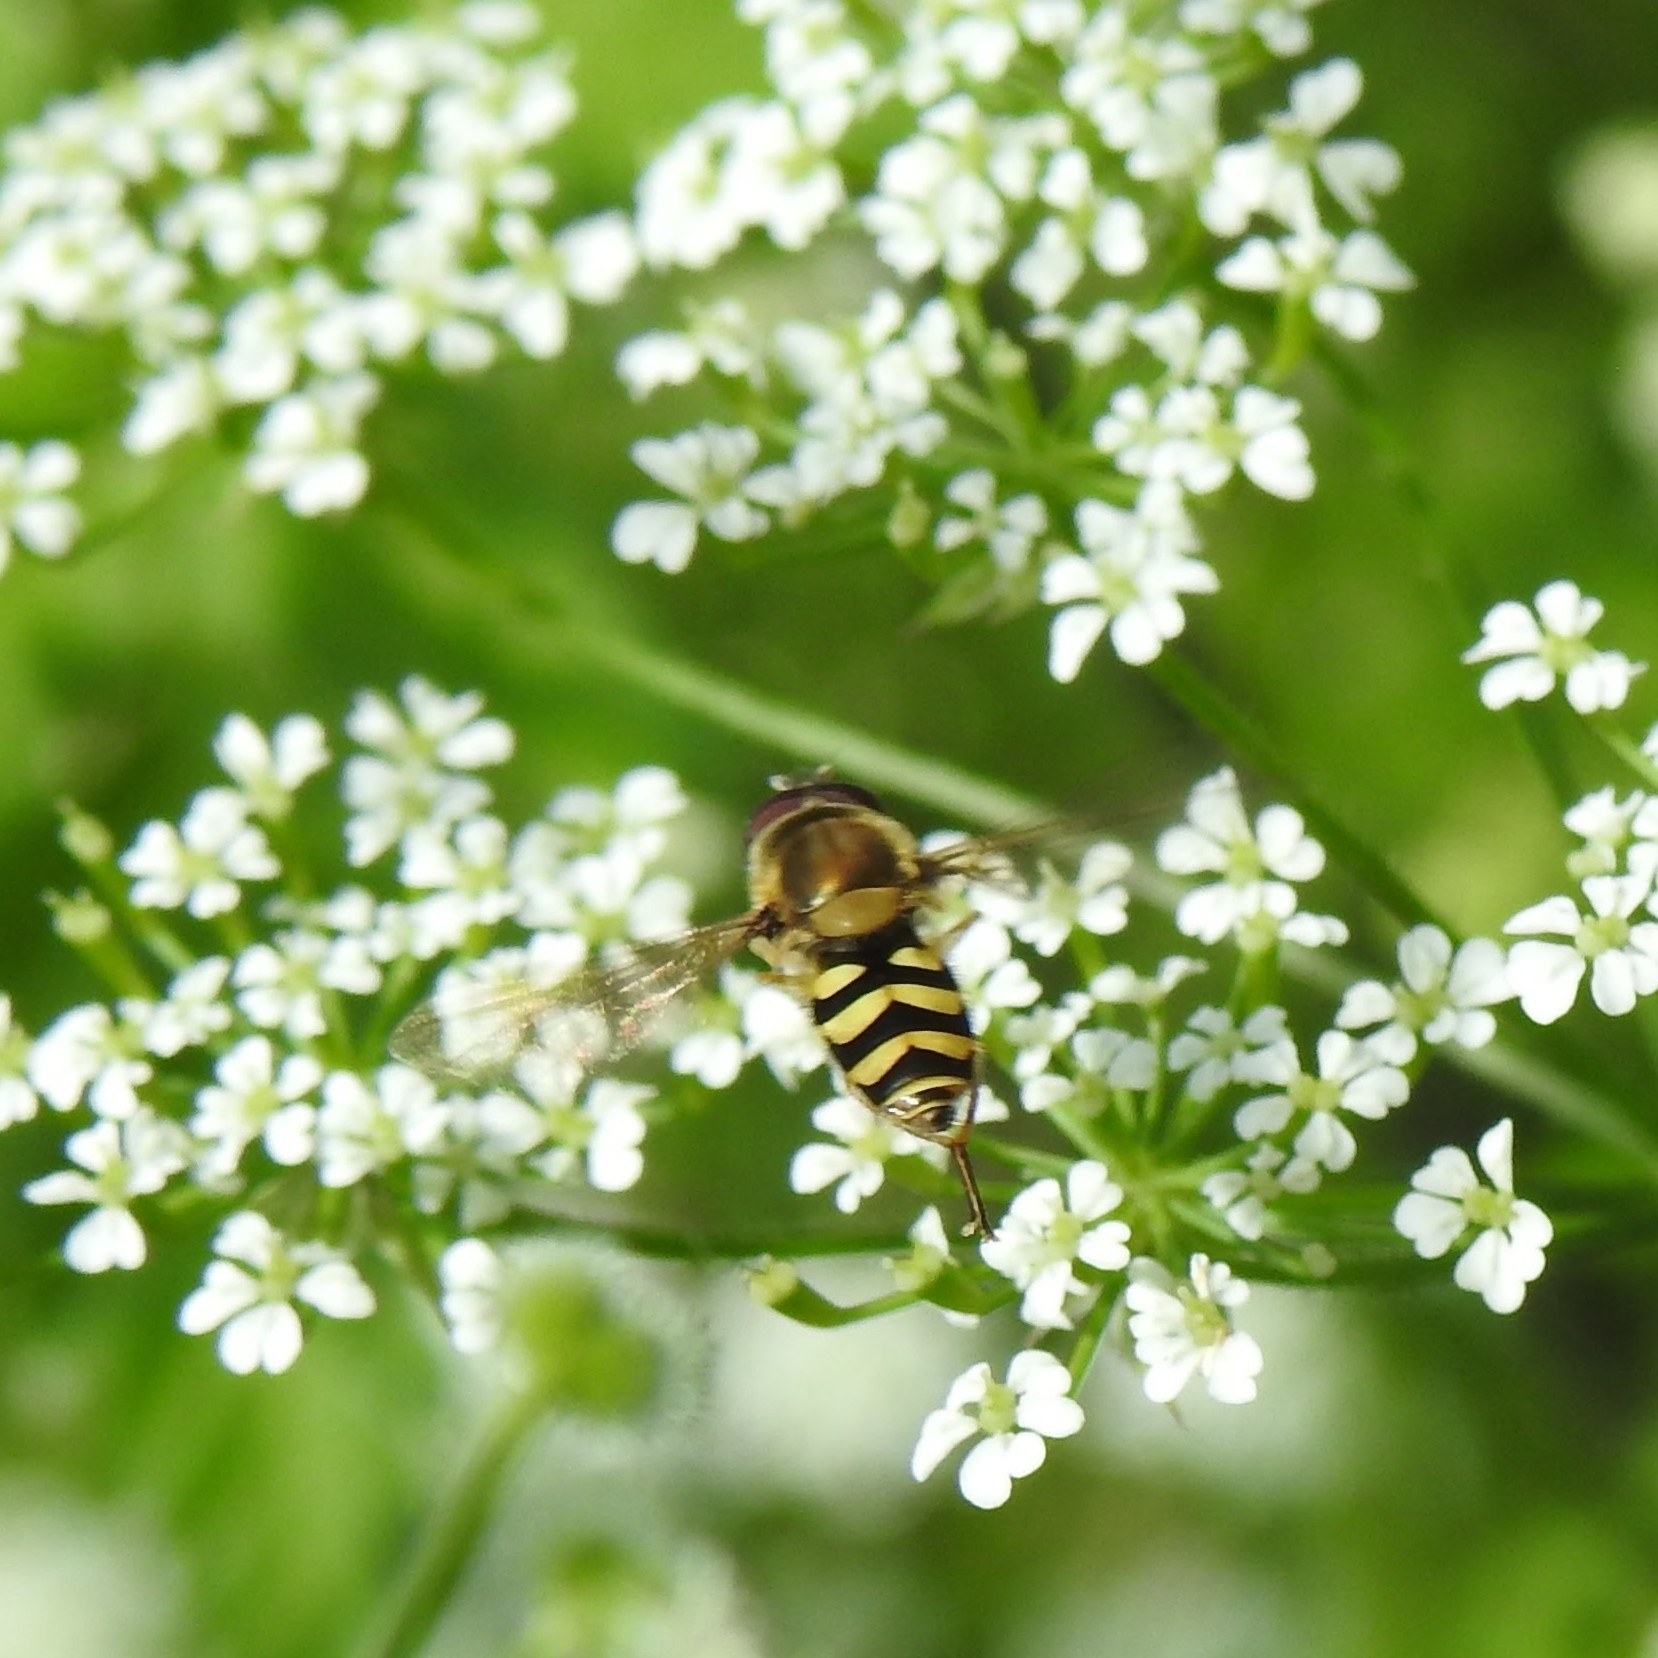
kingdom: Animalia
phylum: Arthropoda
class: Insecta
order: Diptera
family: Syrphidae
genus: Syrphus
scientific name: Syrphus
